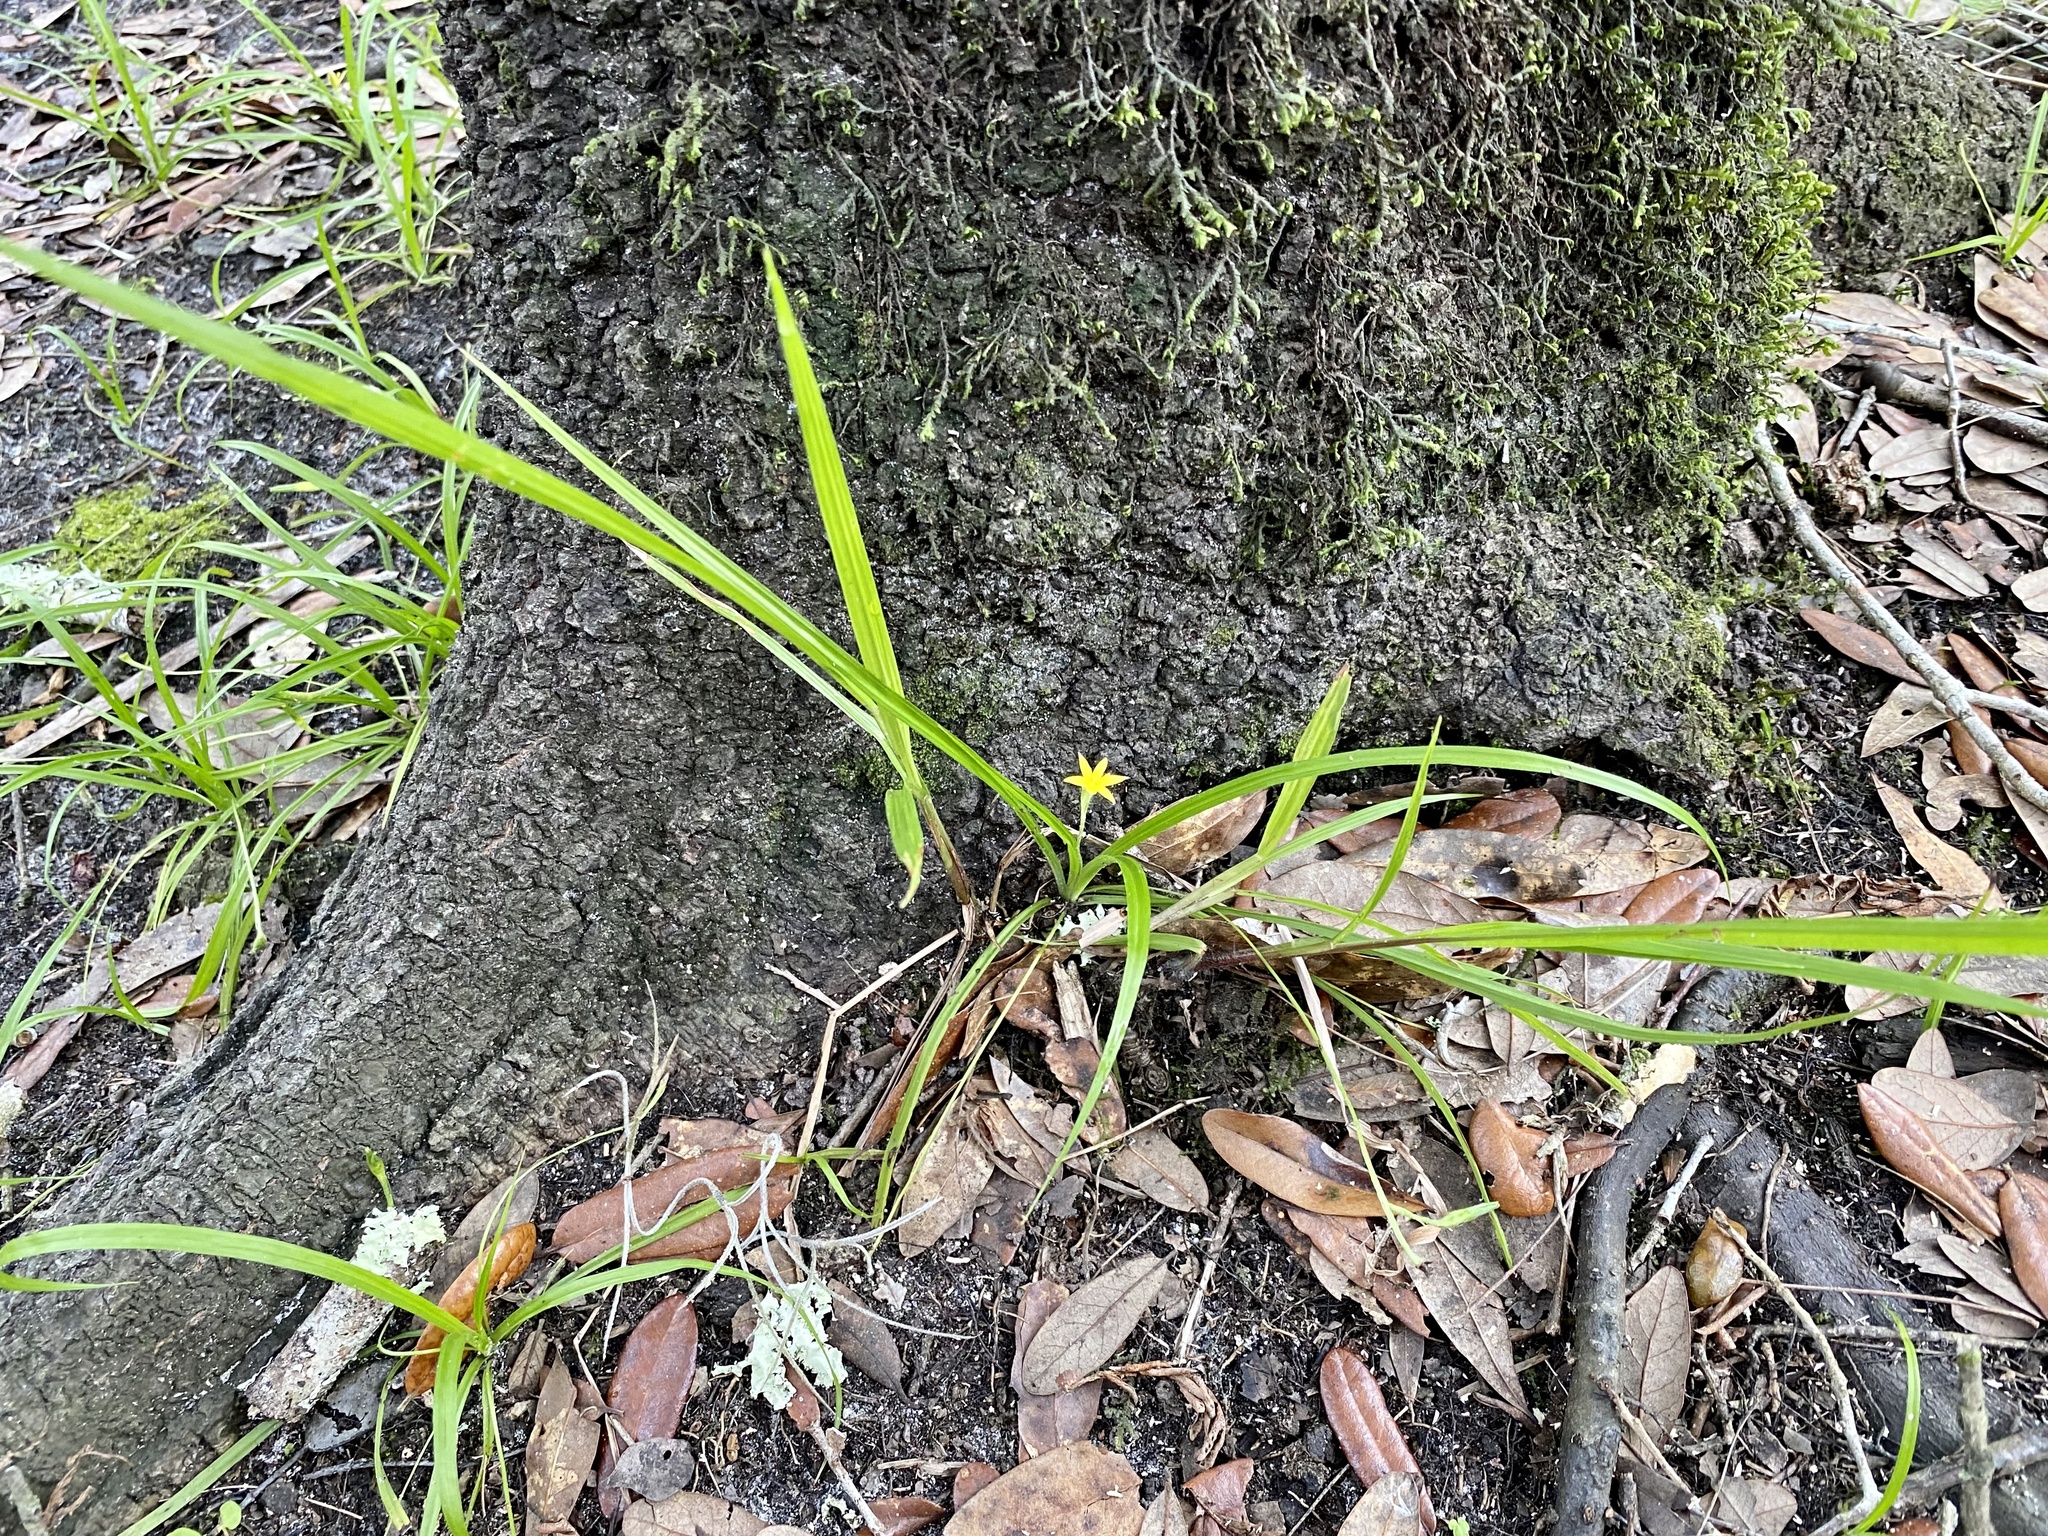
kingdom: Plantae
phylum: Tracheophyta
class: Liliopsida
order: Asparagales
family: Hypoxidaceae
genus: Hypoxis
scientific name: Hypoxis curtissii
